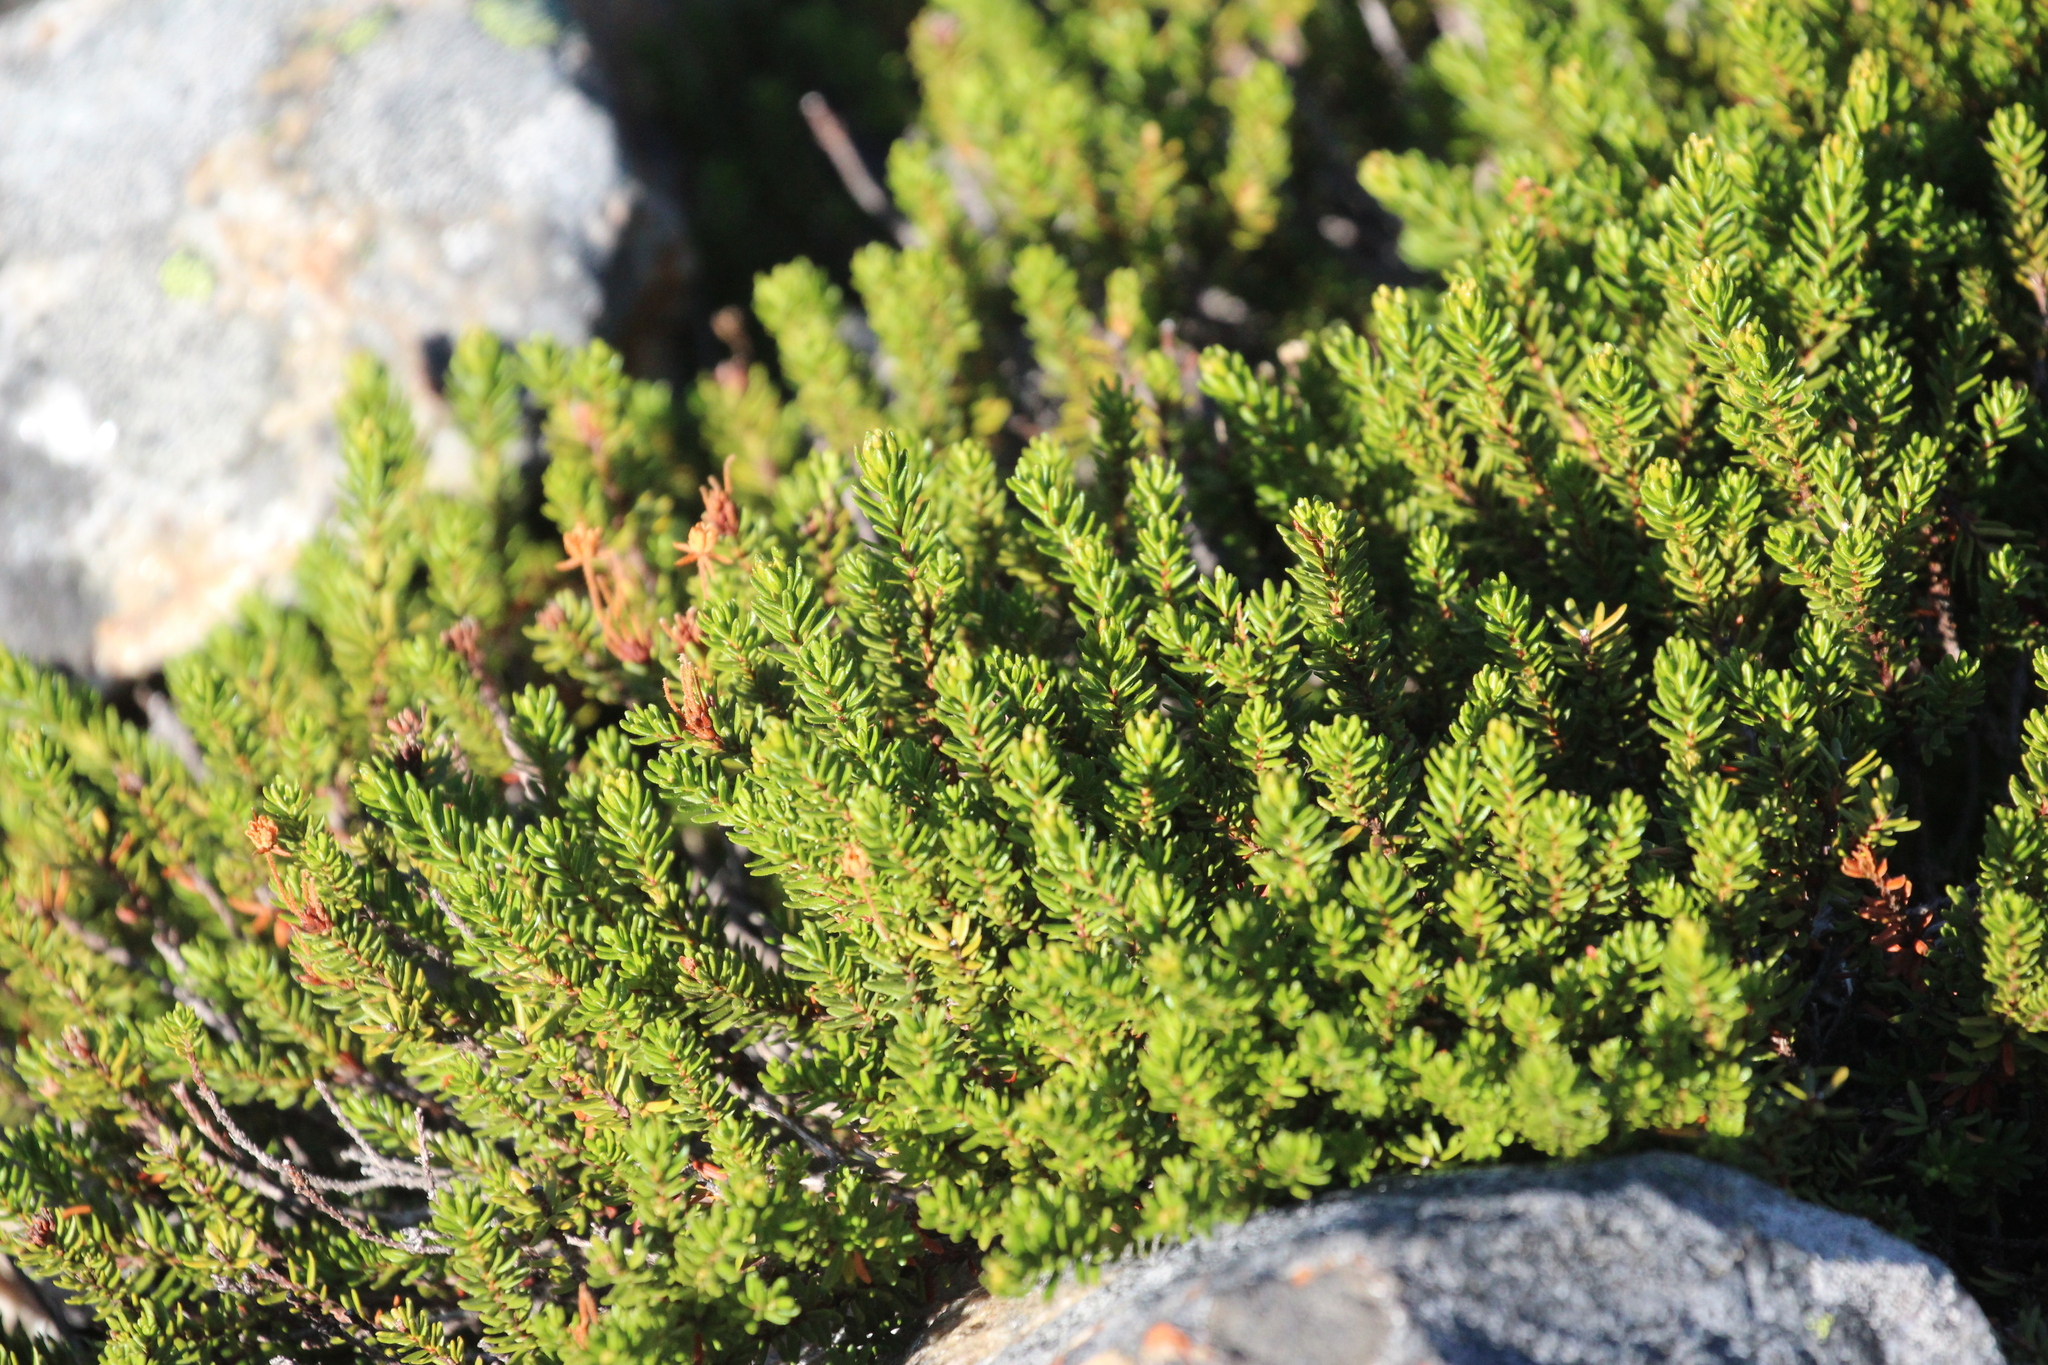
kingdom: Plantae
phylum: Tracheophyta
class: Magnoliopsida
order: Ericales
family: Ericaceae
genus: Phyllodoce
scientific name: Phyllodoce glanduliflora
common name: Cream mountain heather
